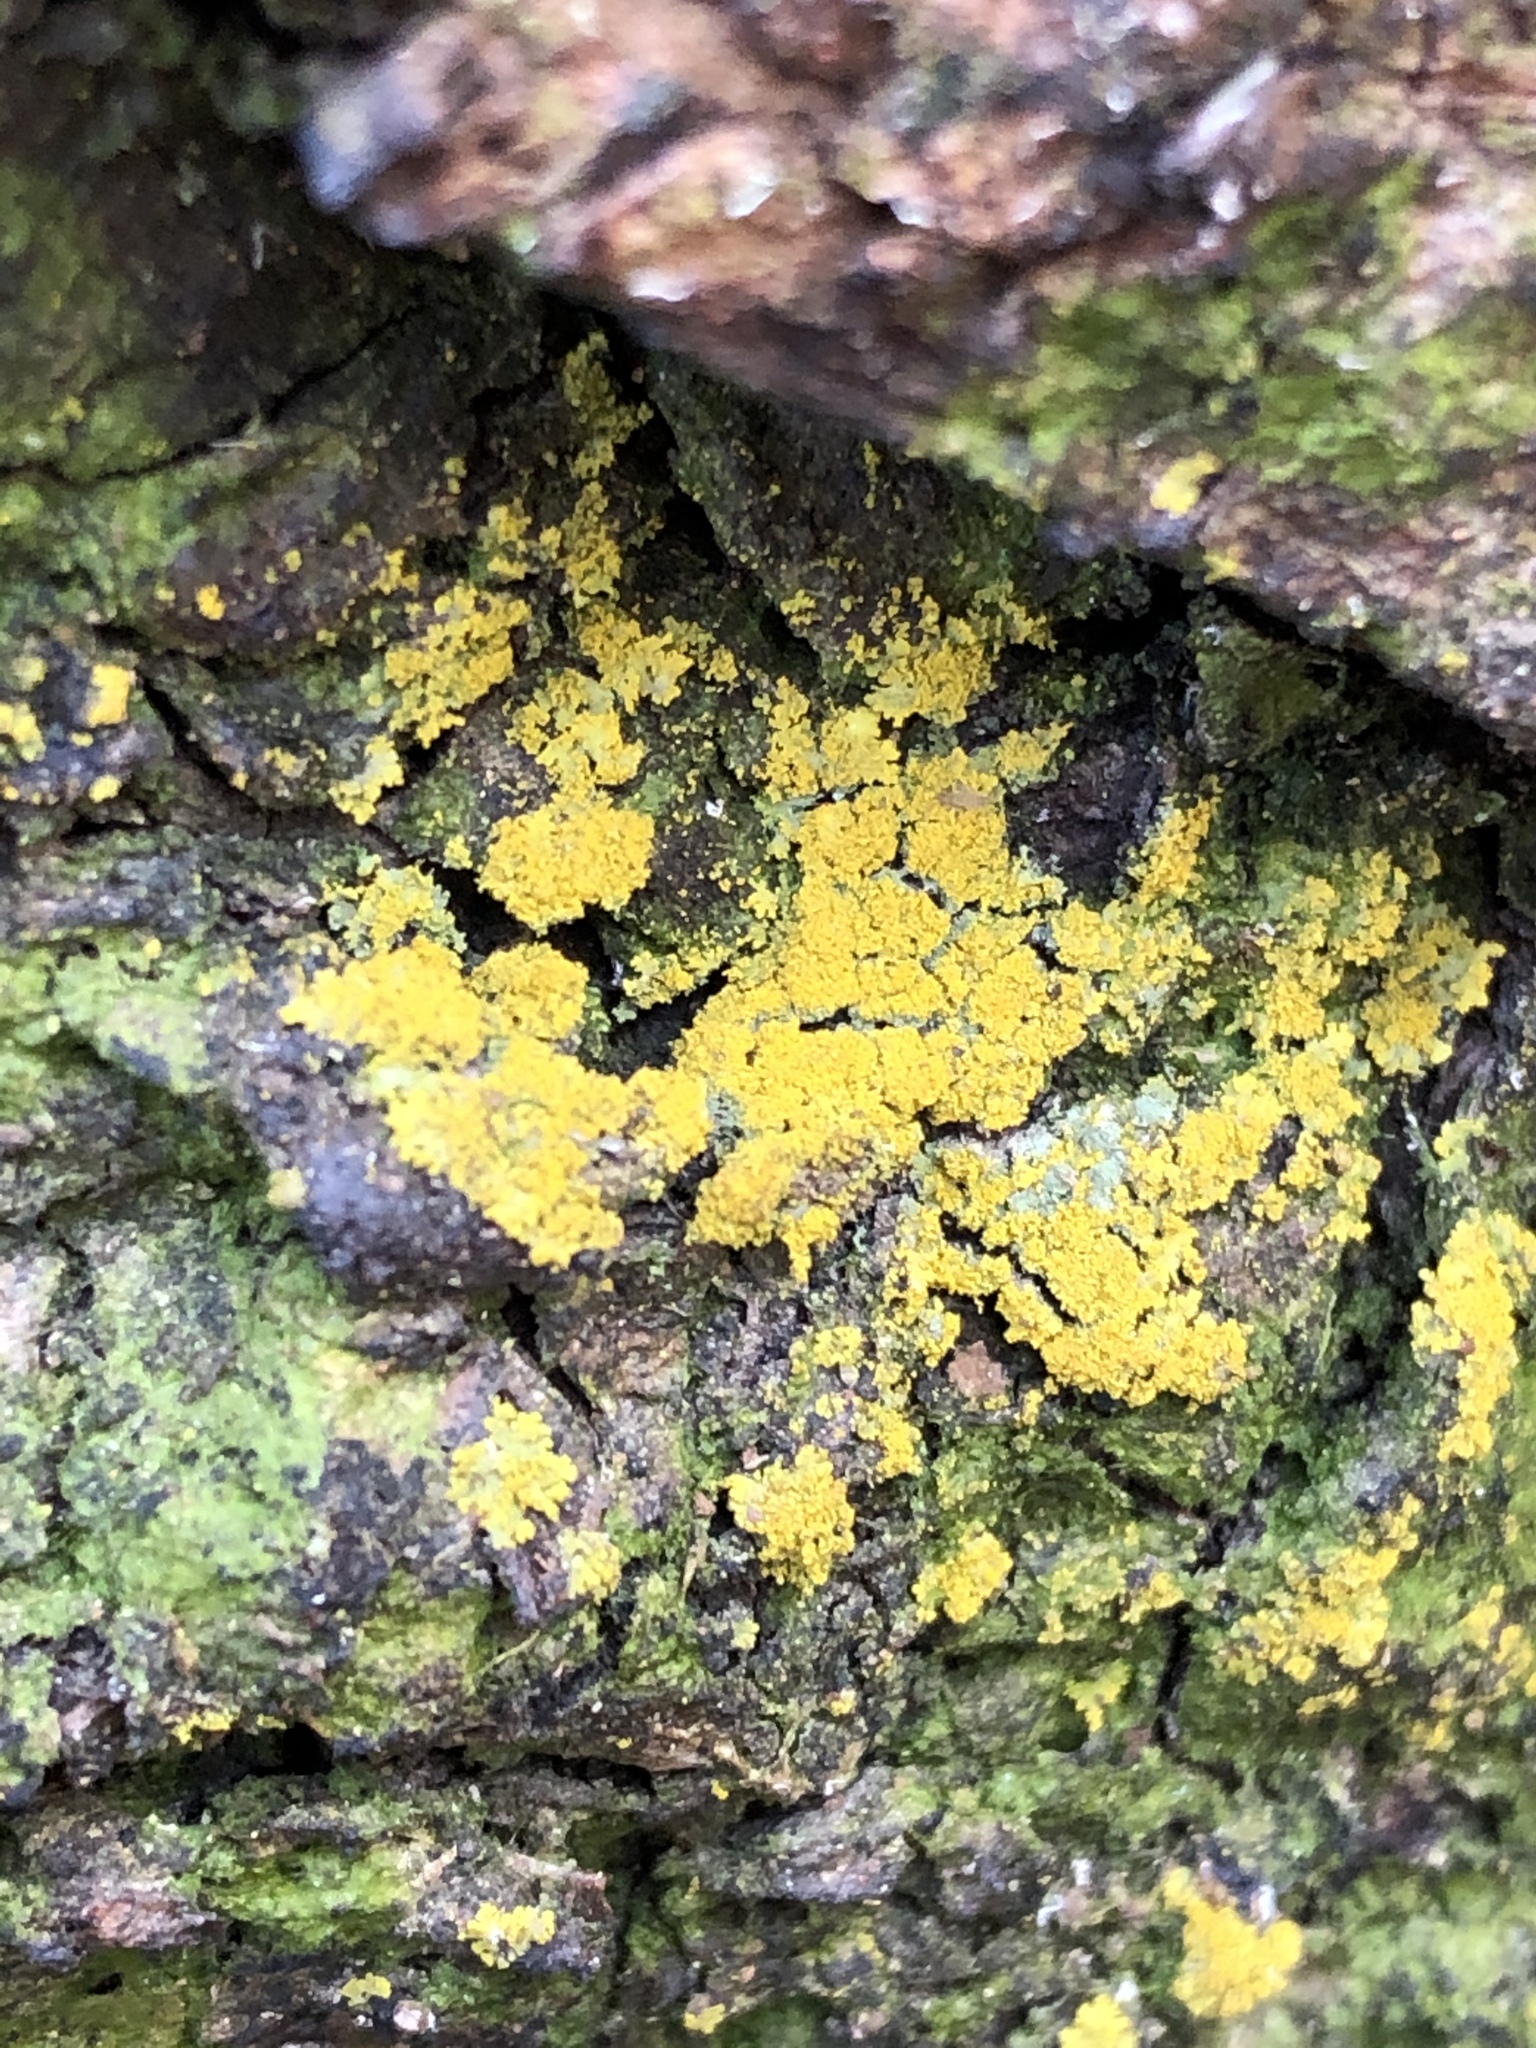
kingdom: Fungi
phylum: Ascomycota
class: Candelariomycetes
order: Candelariales
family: Candelariaceae
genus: Candelariella
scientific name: Candelariella vitellina
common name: Common goldspeck
